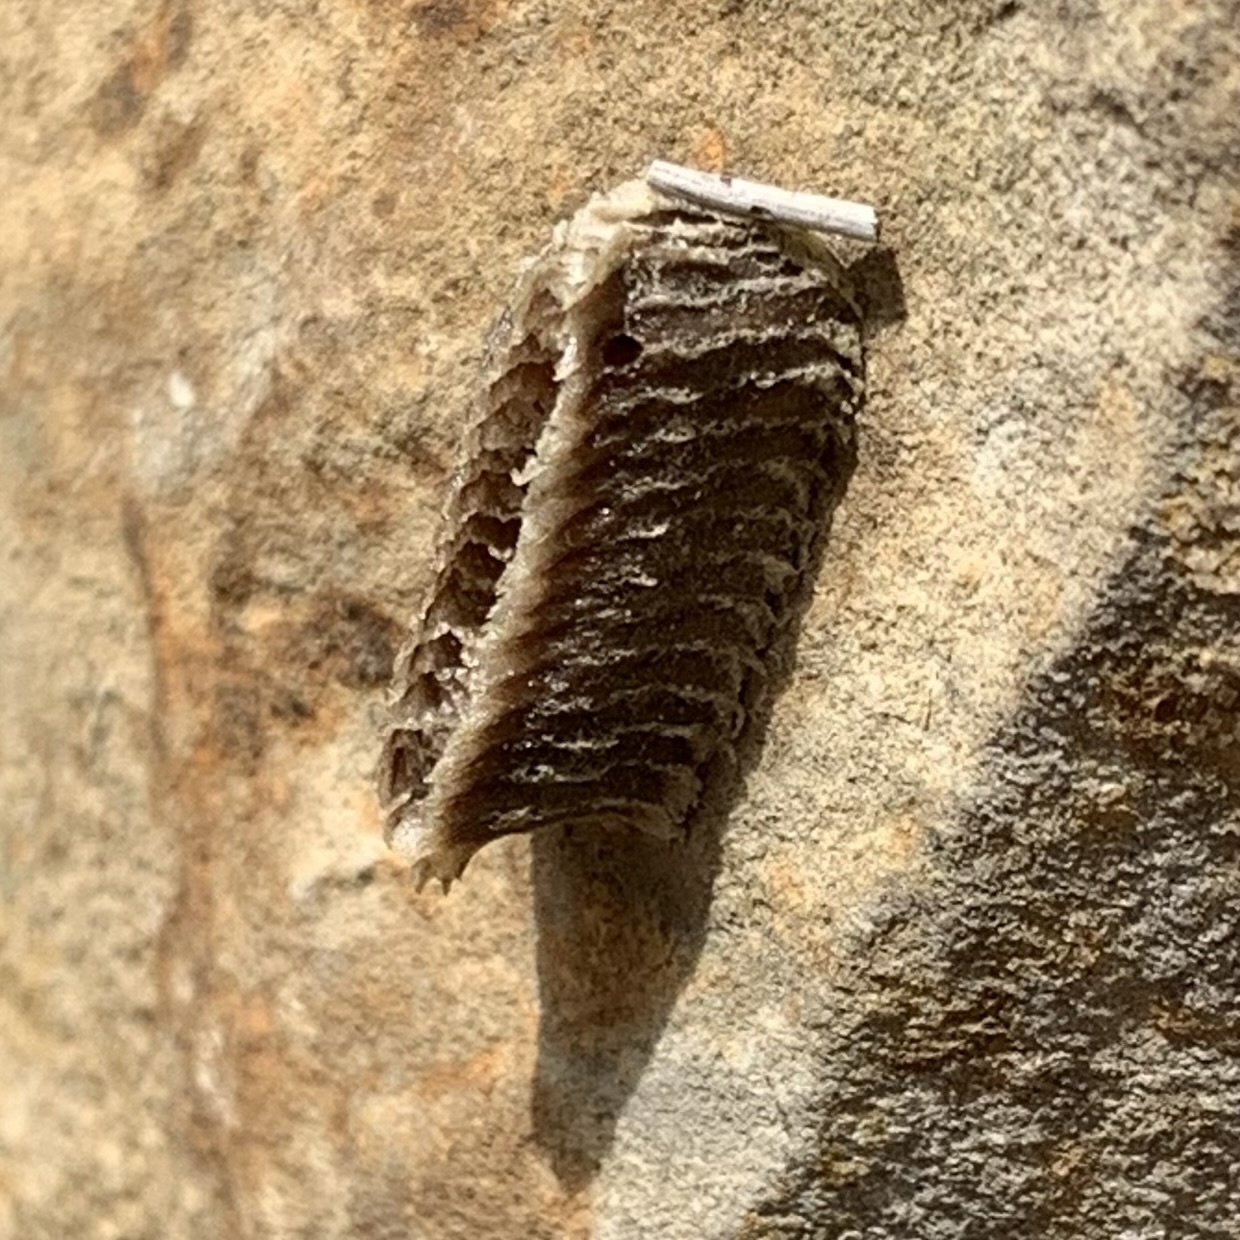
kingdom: Animalia
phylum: Arthropoda
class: Insecta
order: Mantodea
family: Eremiaphilidae
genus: Iris
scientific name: Iris oratoria
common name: Mediterranean mantis
